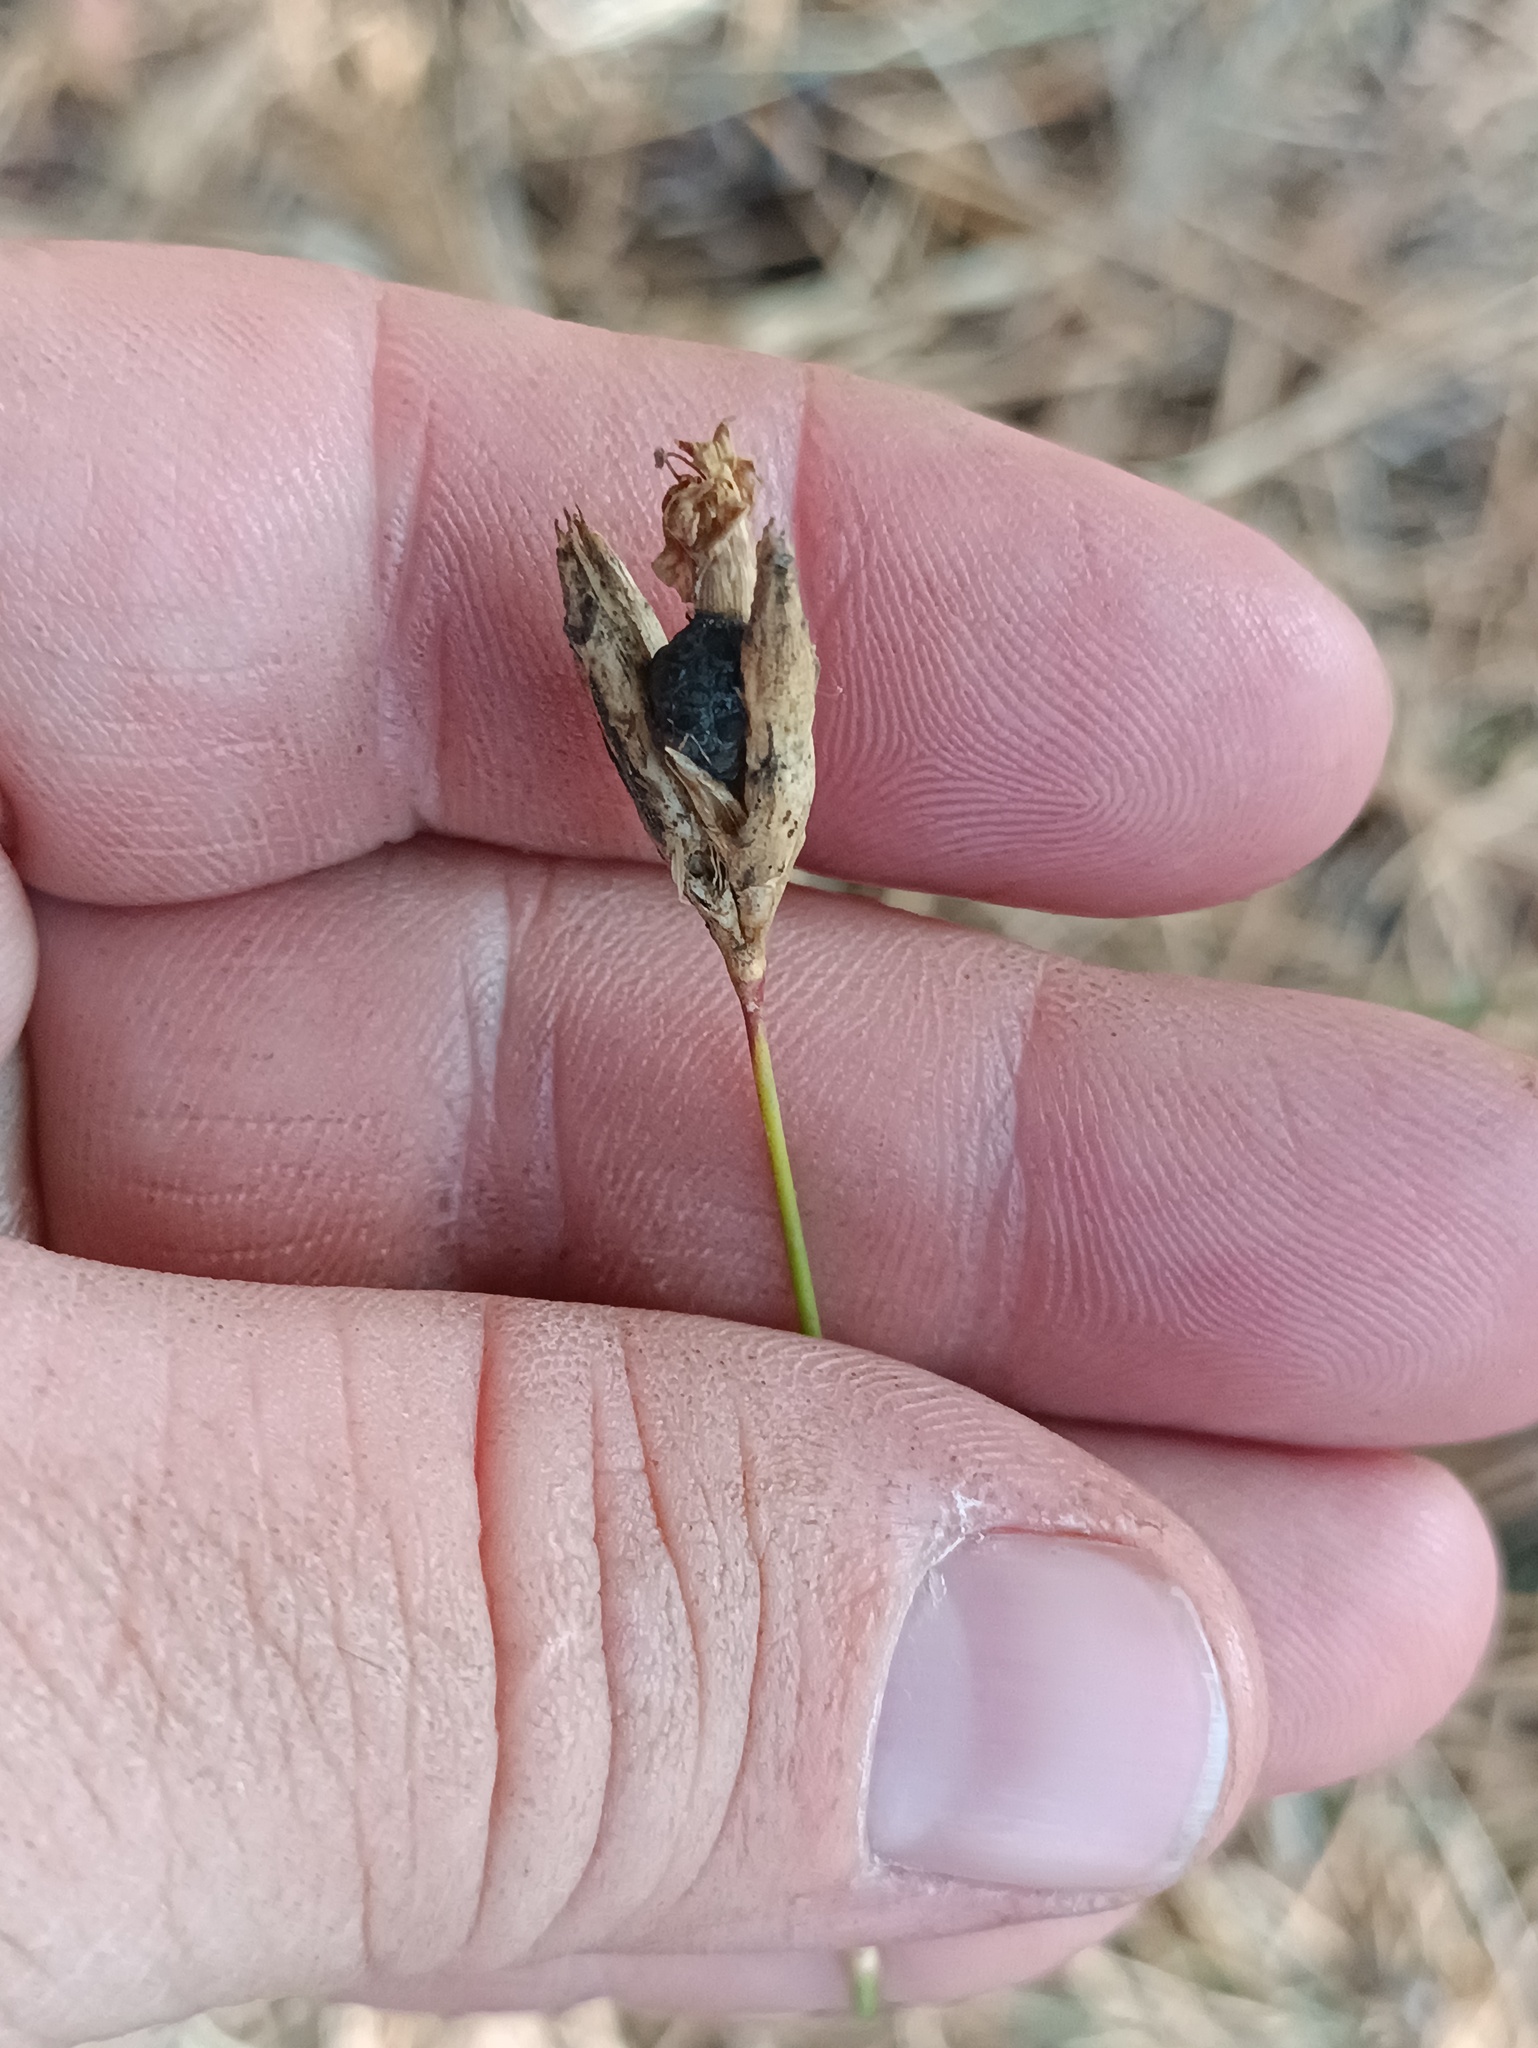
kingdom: Plantae
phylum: Tracheophyta
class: Magnoliopsida
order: Caryophyllales
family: Caryophyllaceae
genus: Dianthus
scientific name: Dianthus borbasii
